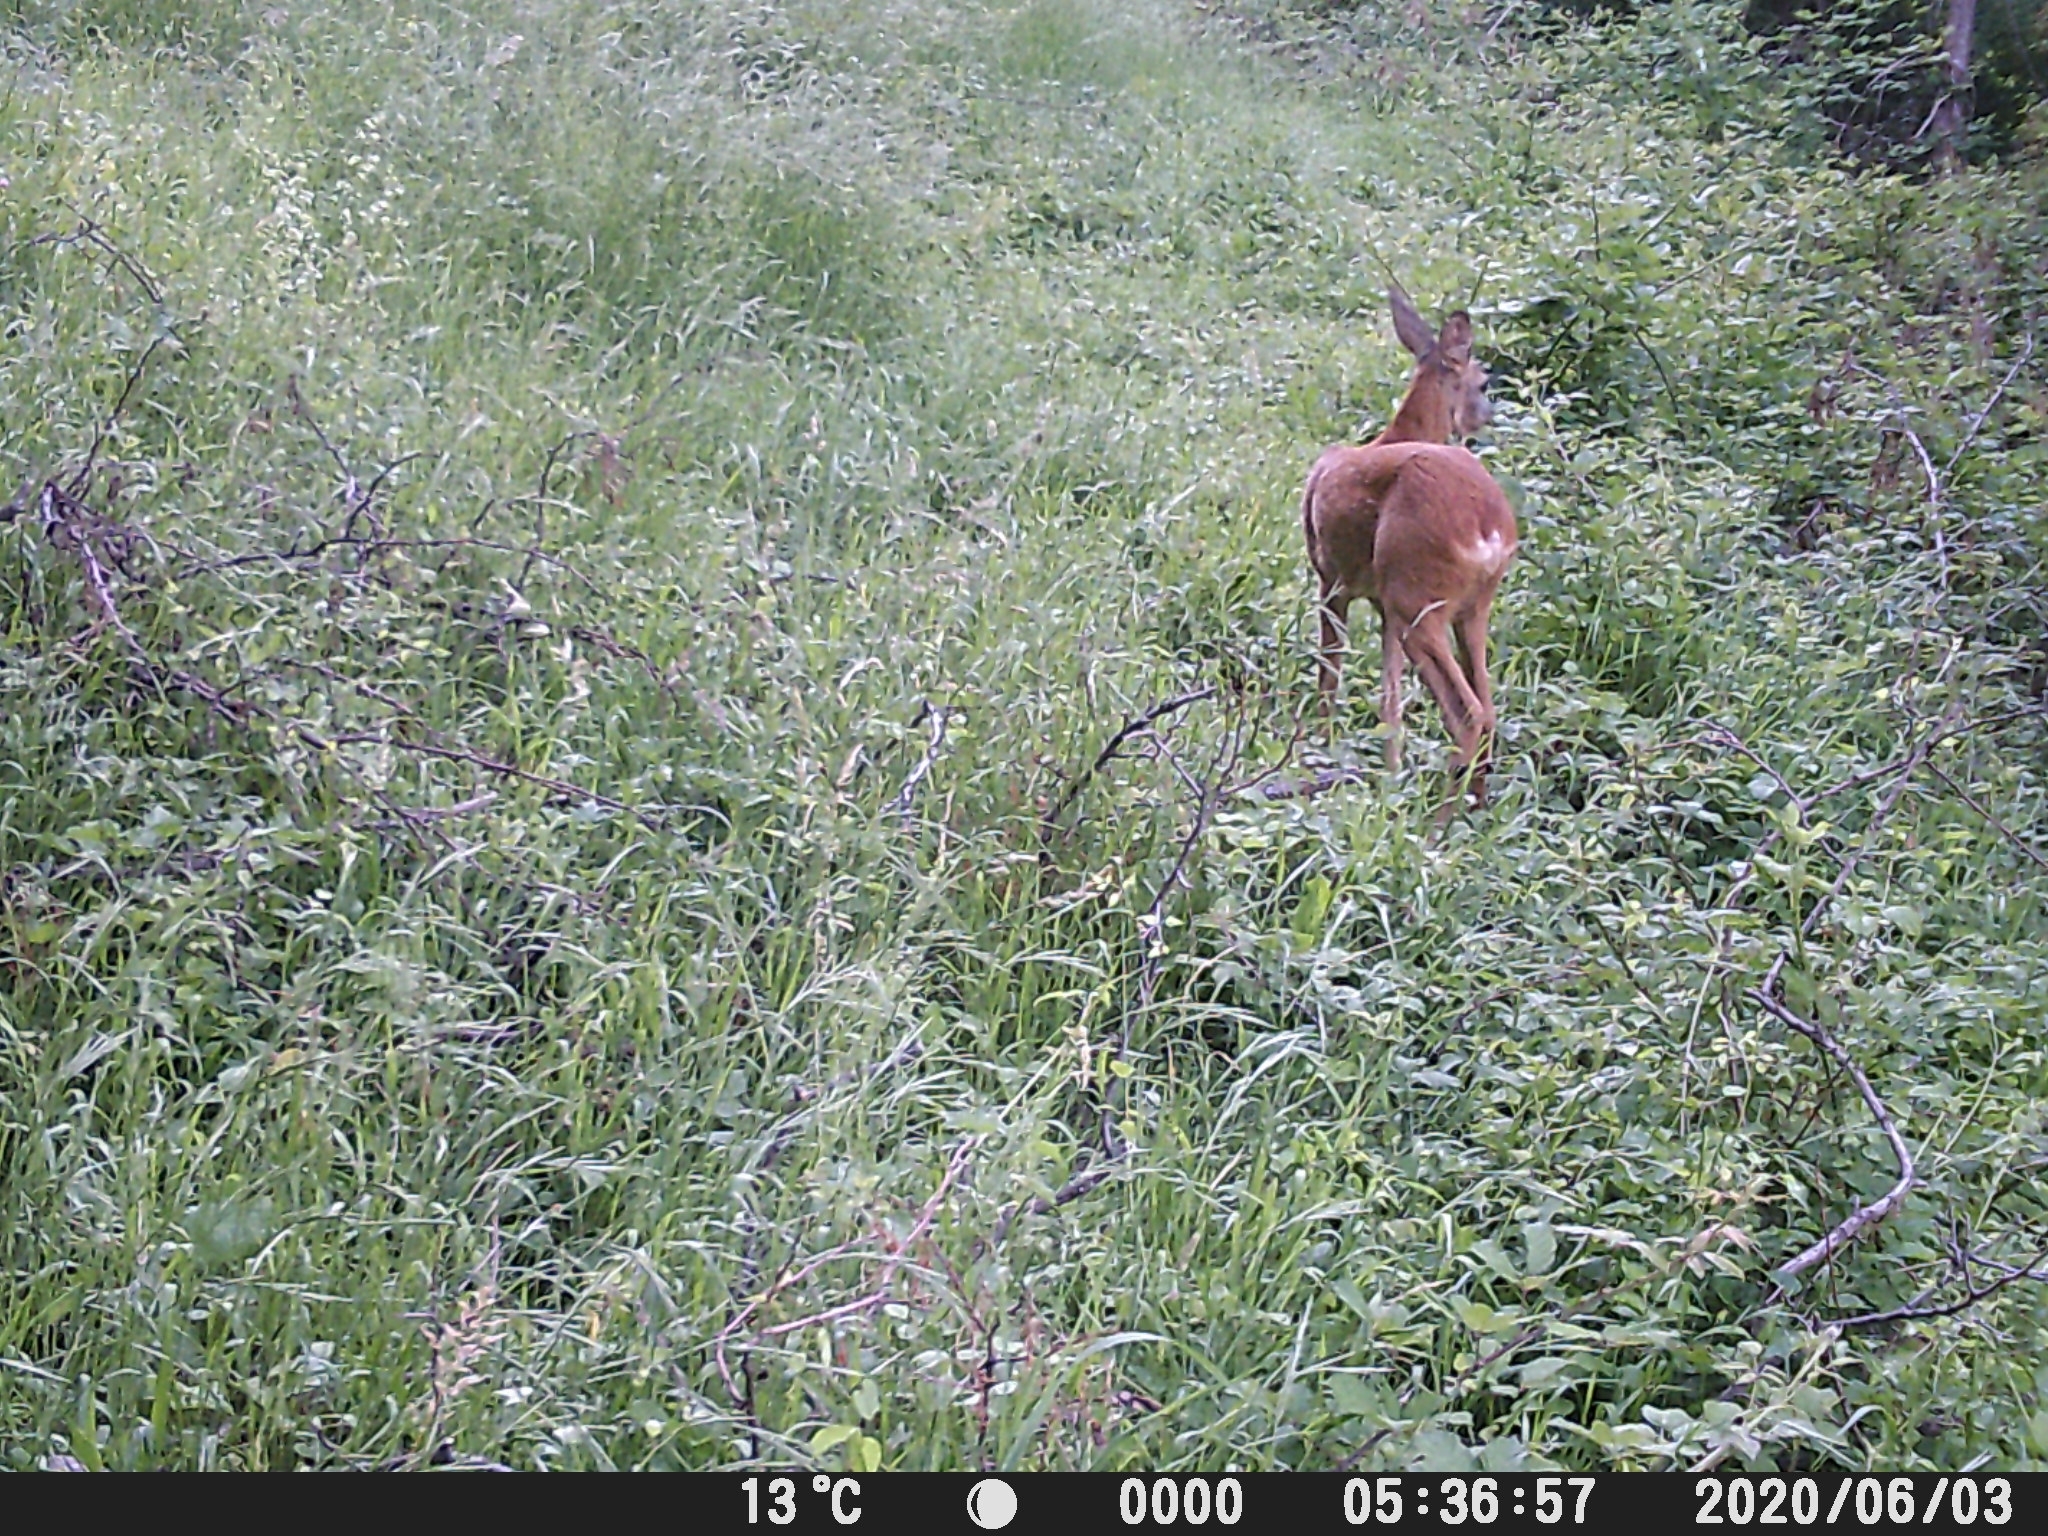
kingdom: Animalia
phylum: Chordata
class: Mammalia
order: Artiodactyla
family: Cervidae
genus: Capreolus
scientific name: Capreolus capreolus
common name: Western roe deer
